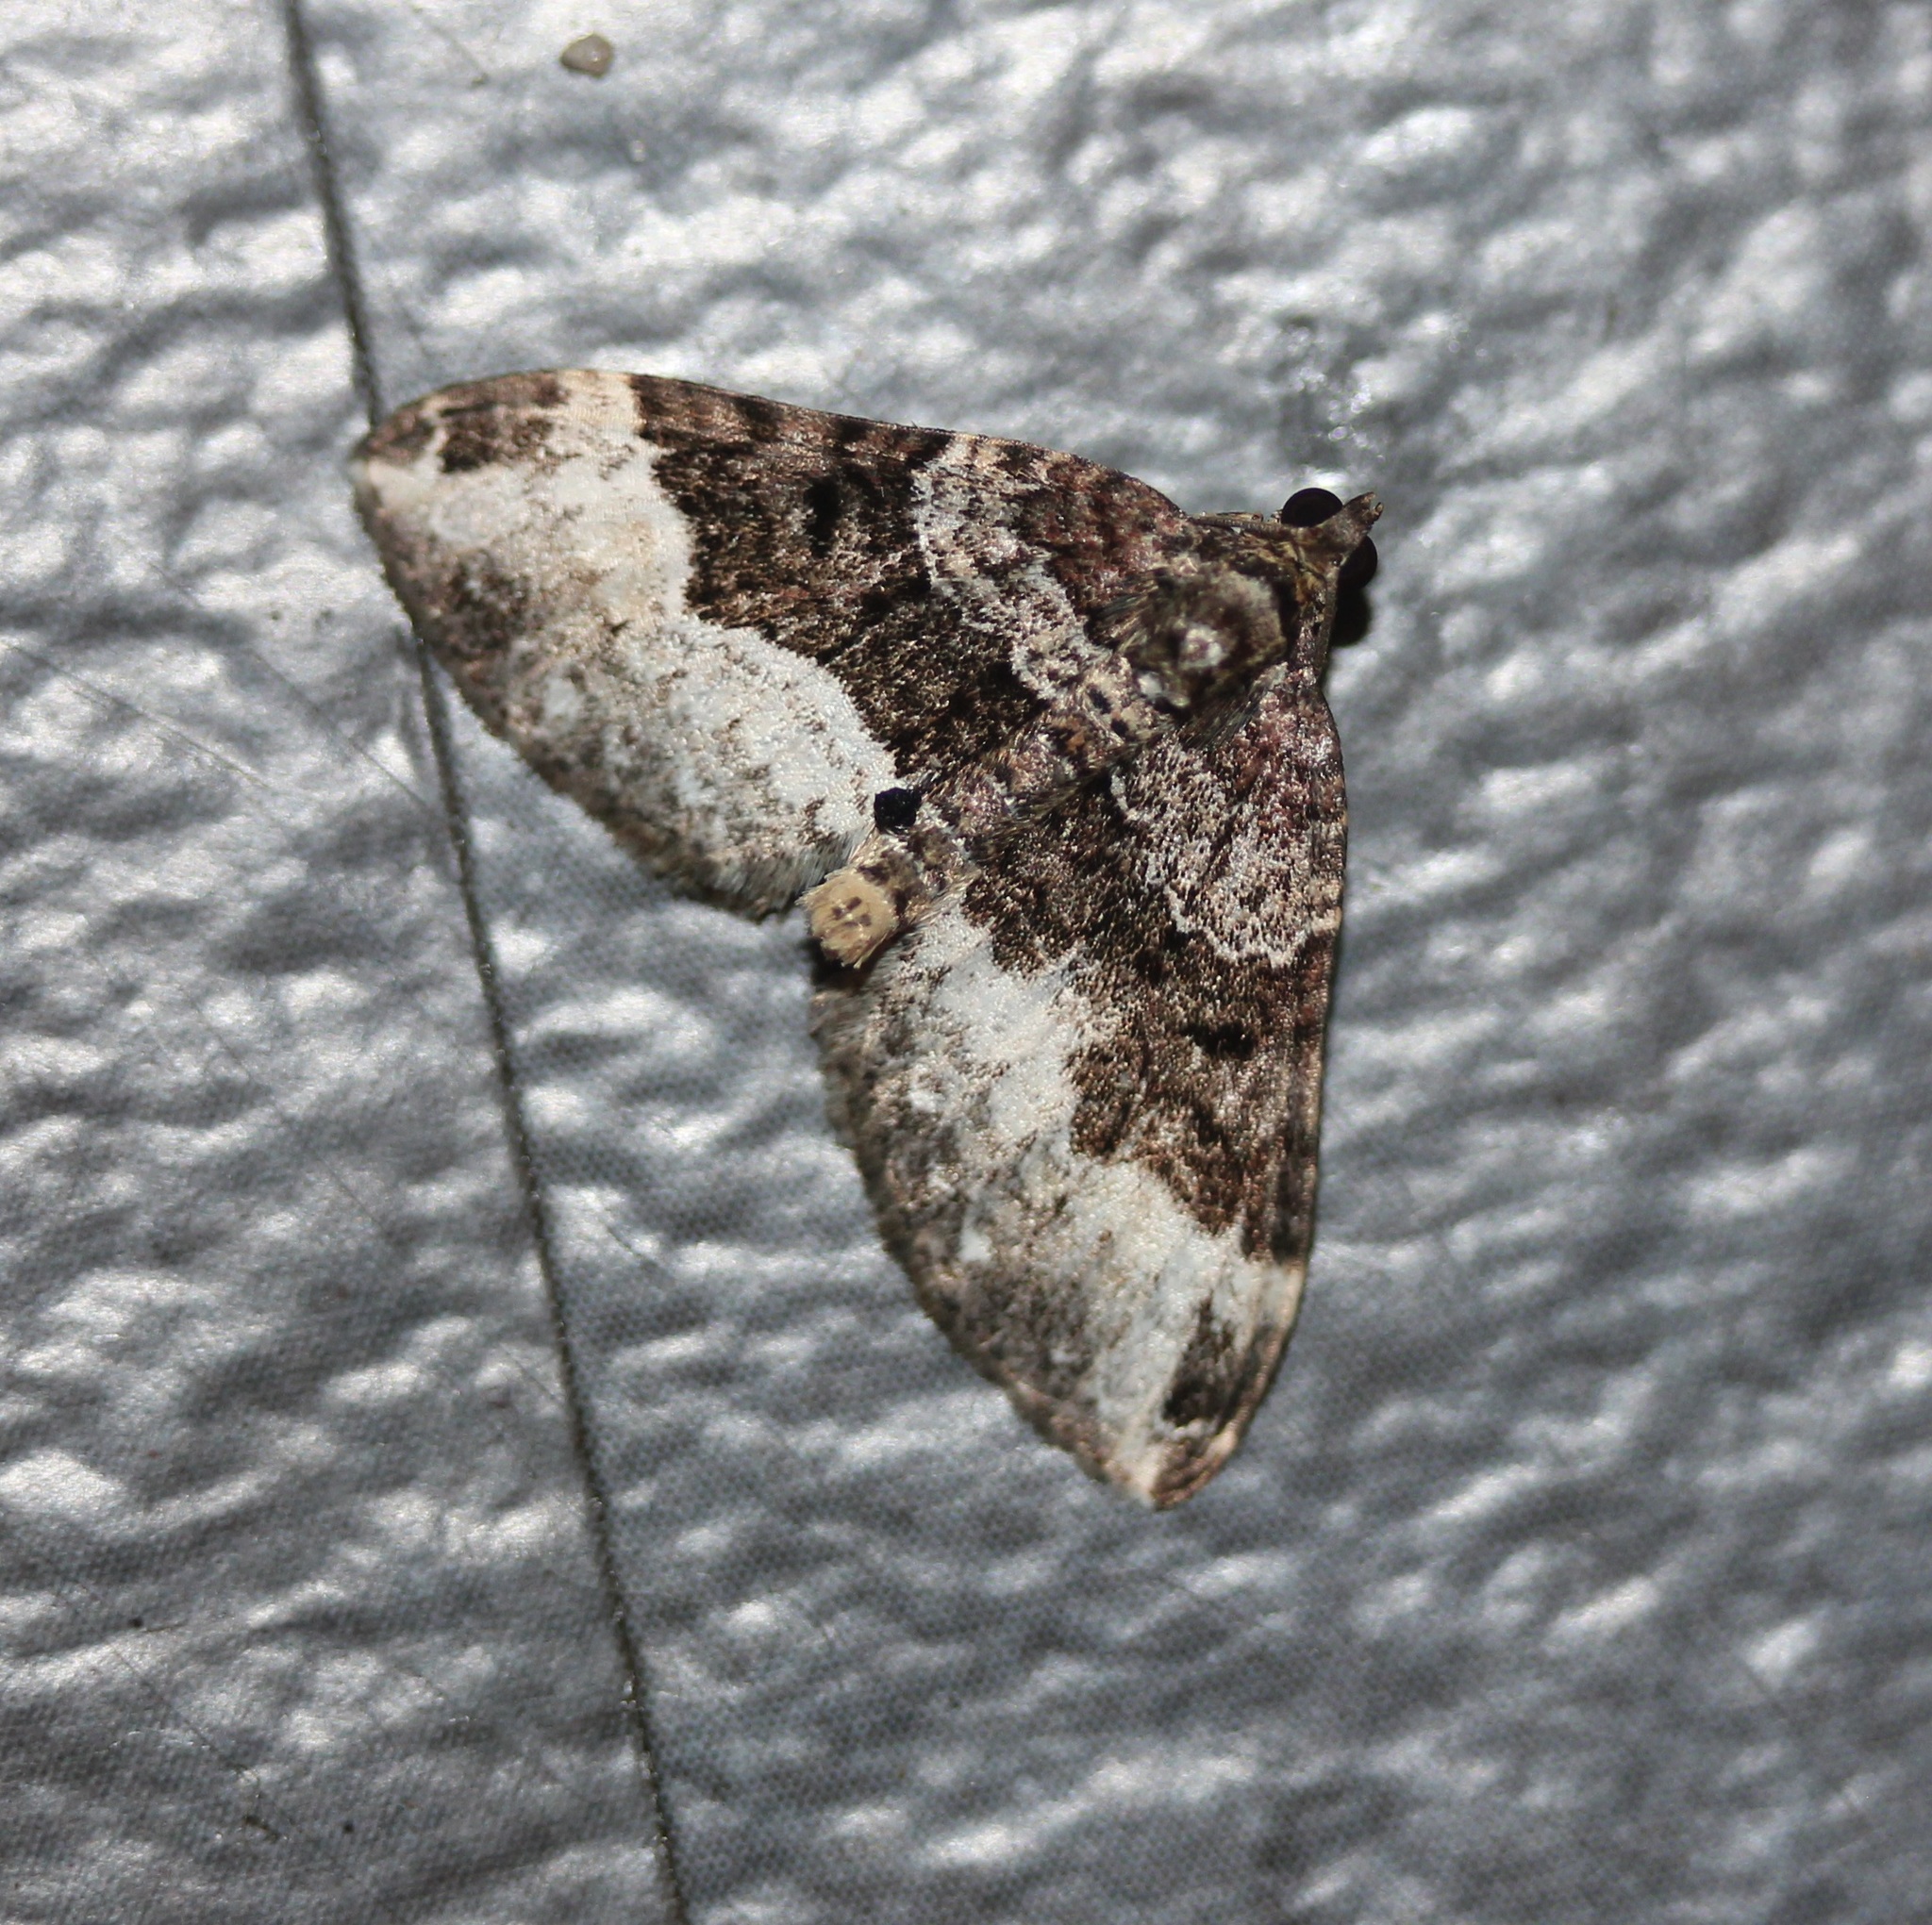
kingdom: Animalia
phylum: Arthropoda
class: Insecta
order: Lepidoptera
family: Geometridae
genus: Xanthorhoe
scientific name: Xanthorhoe lacustrata
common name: Toothed brown carpet
